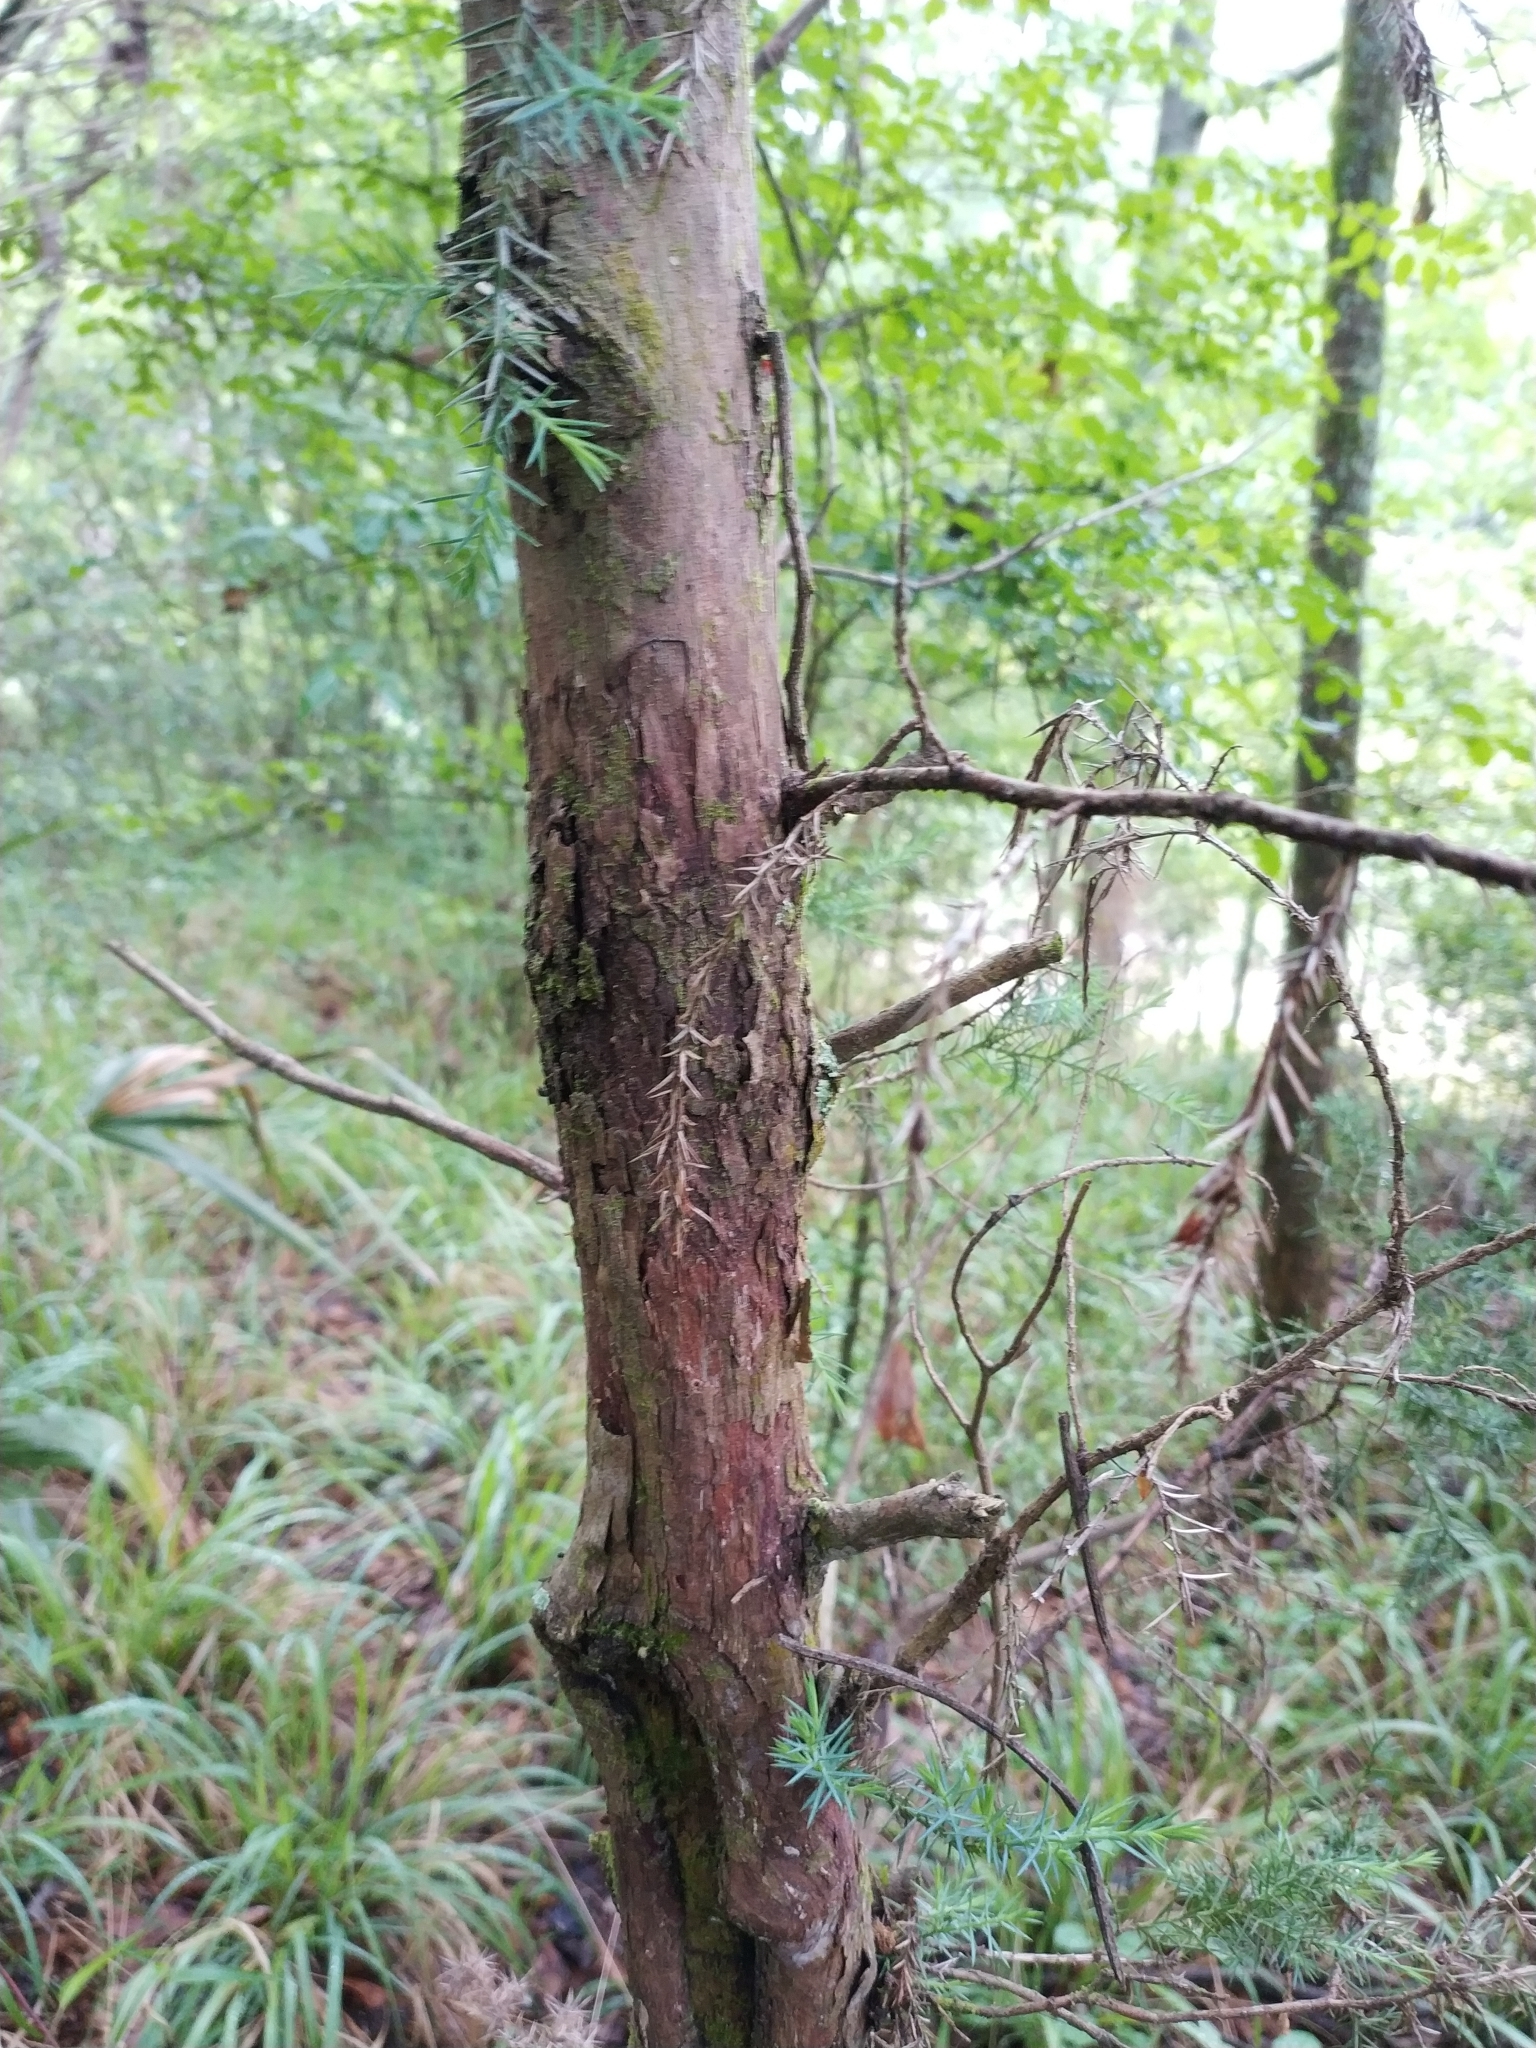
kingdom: Plantae
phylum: Tracheophyta
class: Pinopsida
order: Pinales
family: Cupressaceae
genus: Juniperus
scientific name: Juniperus virginiana
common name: Red juniper
